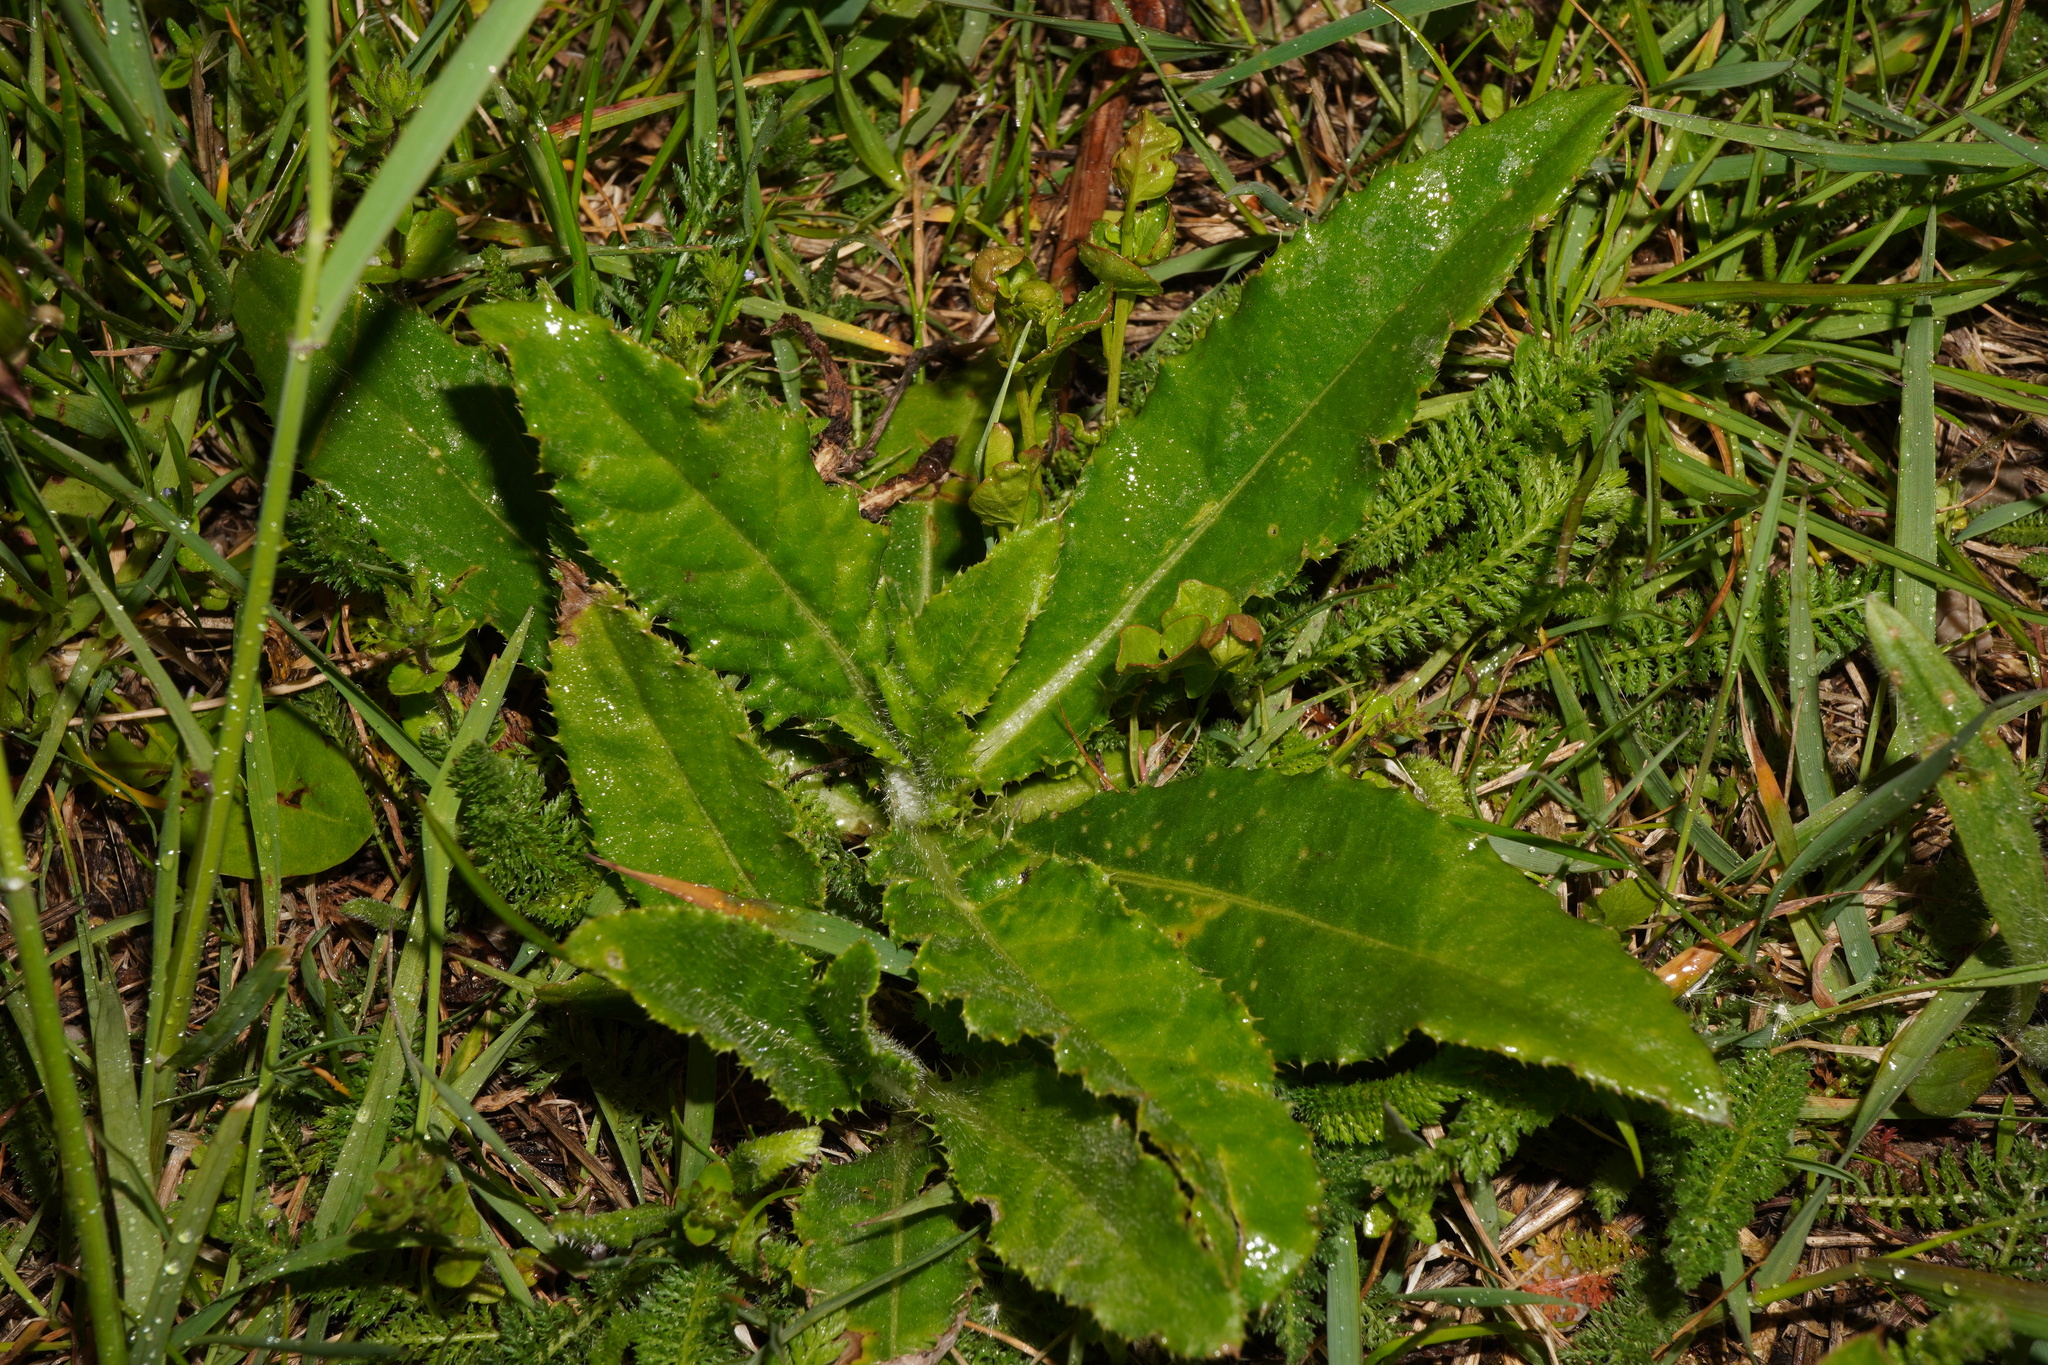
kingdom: Plantae
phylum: Tracheophyta
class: Magnoliopsida
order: Asterales
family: Asteraceae
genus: Cirsium
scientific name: Cirsium arvense
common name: Creeping thistle
